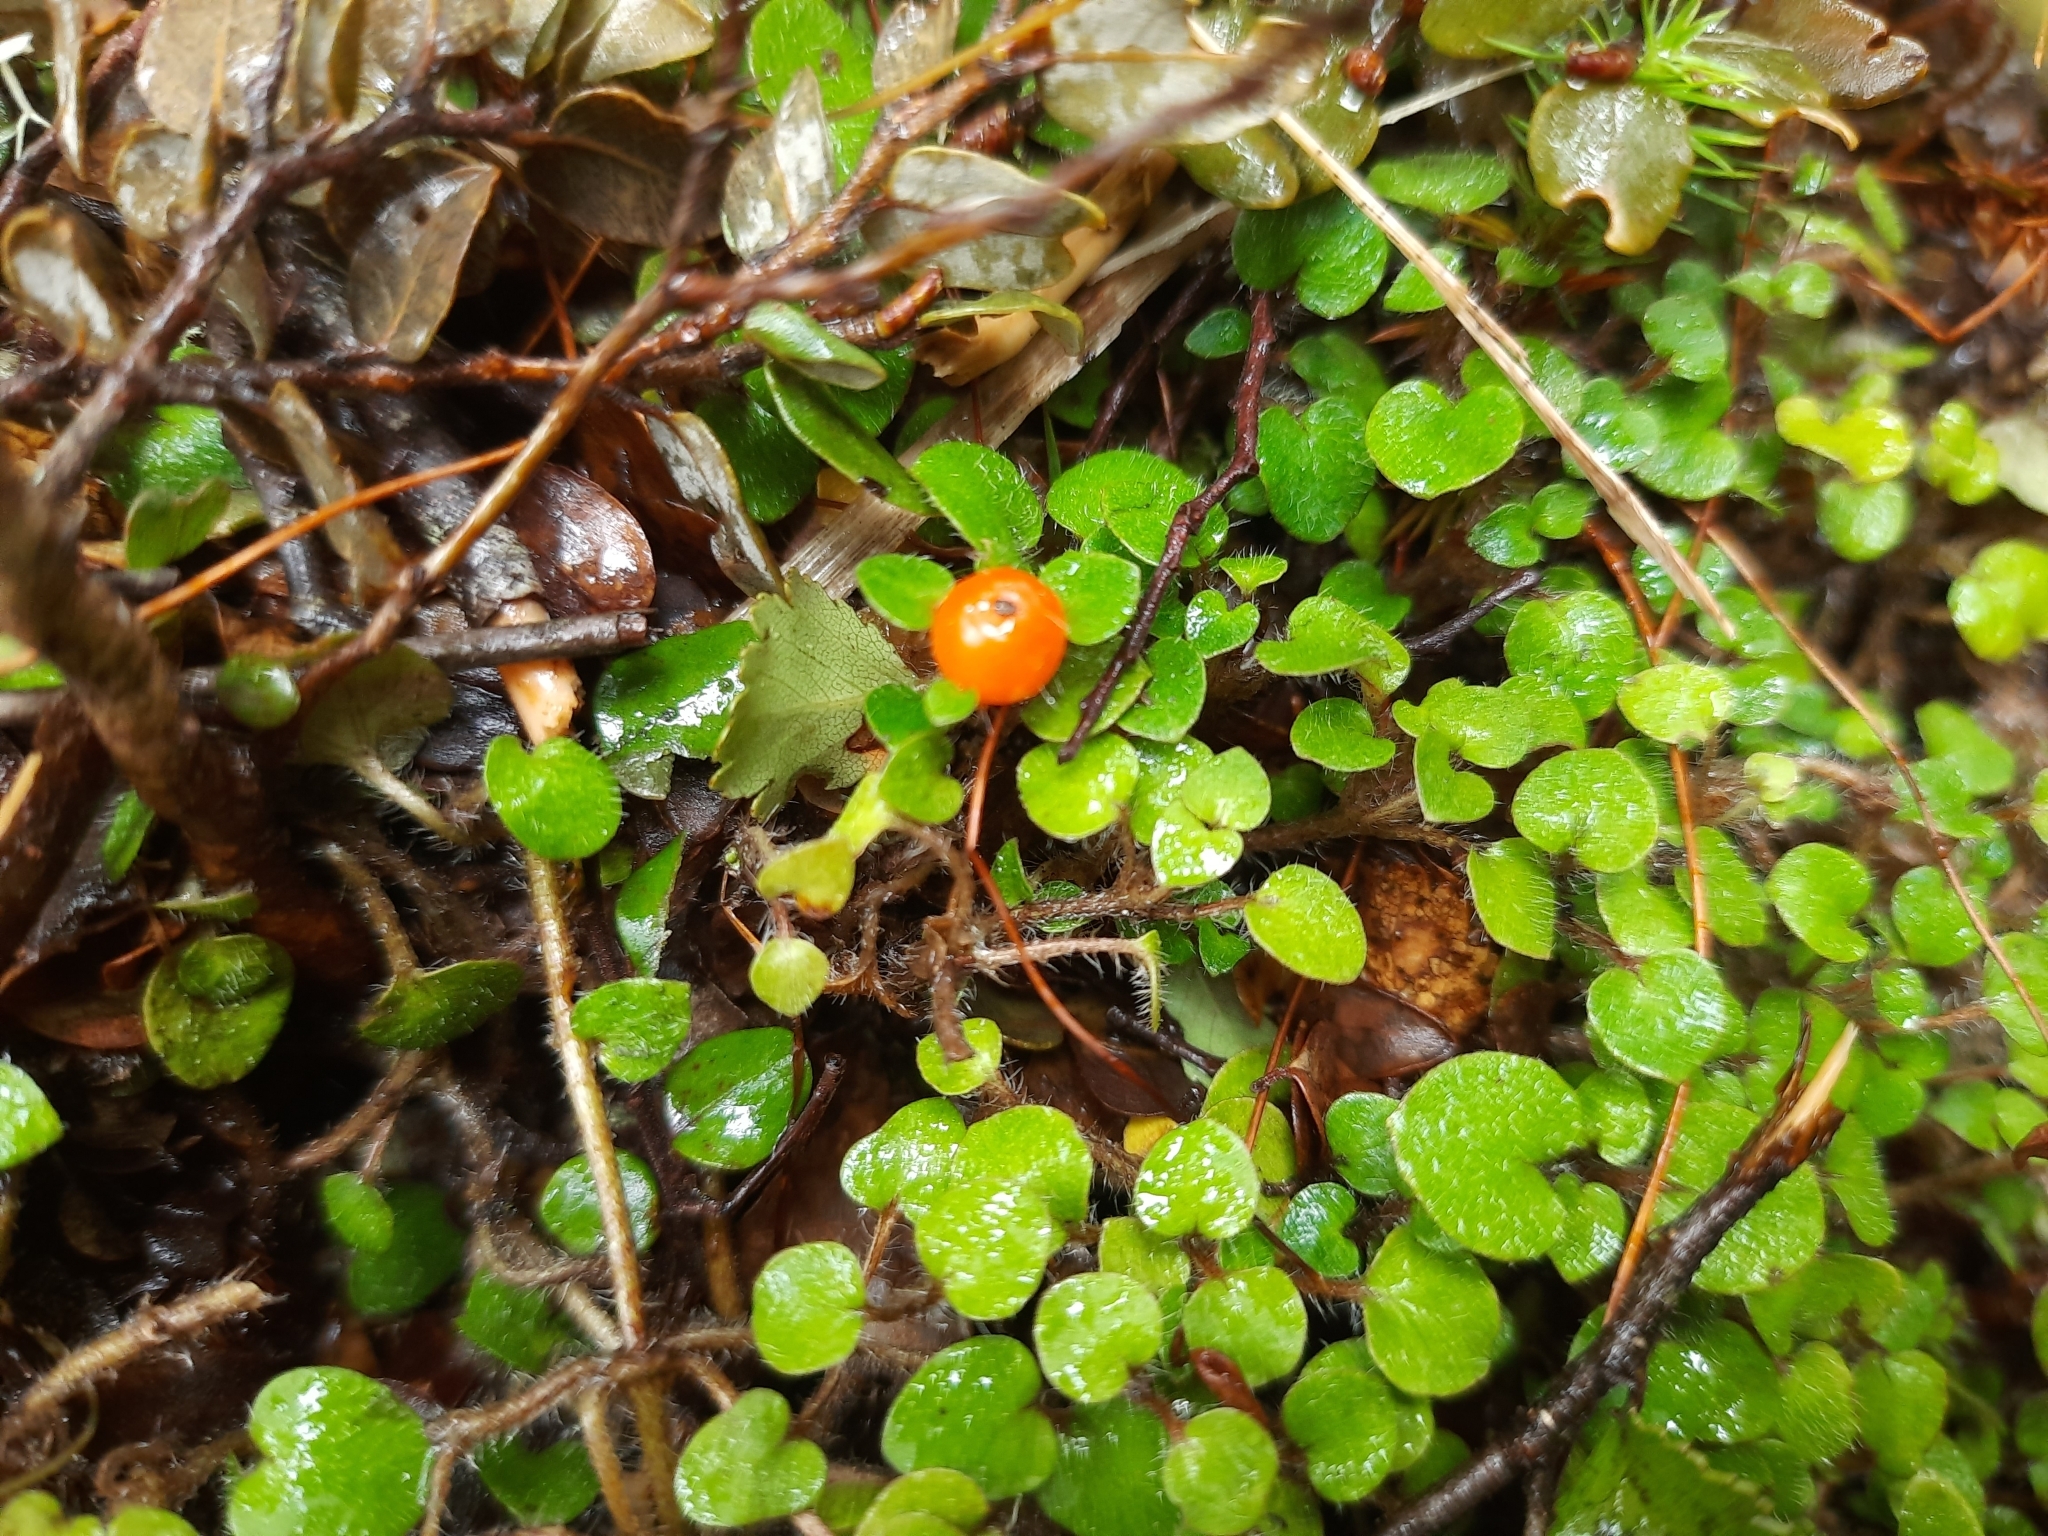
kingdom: Plantae
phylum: Tracheophyta
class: Magnoliopsida
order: Gentianales
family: Rubiaceae
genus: Nertera
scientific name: Nertera villosa
